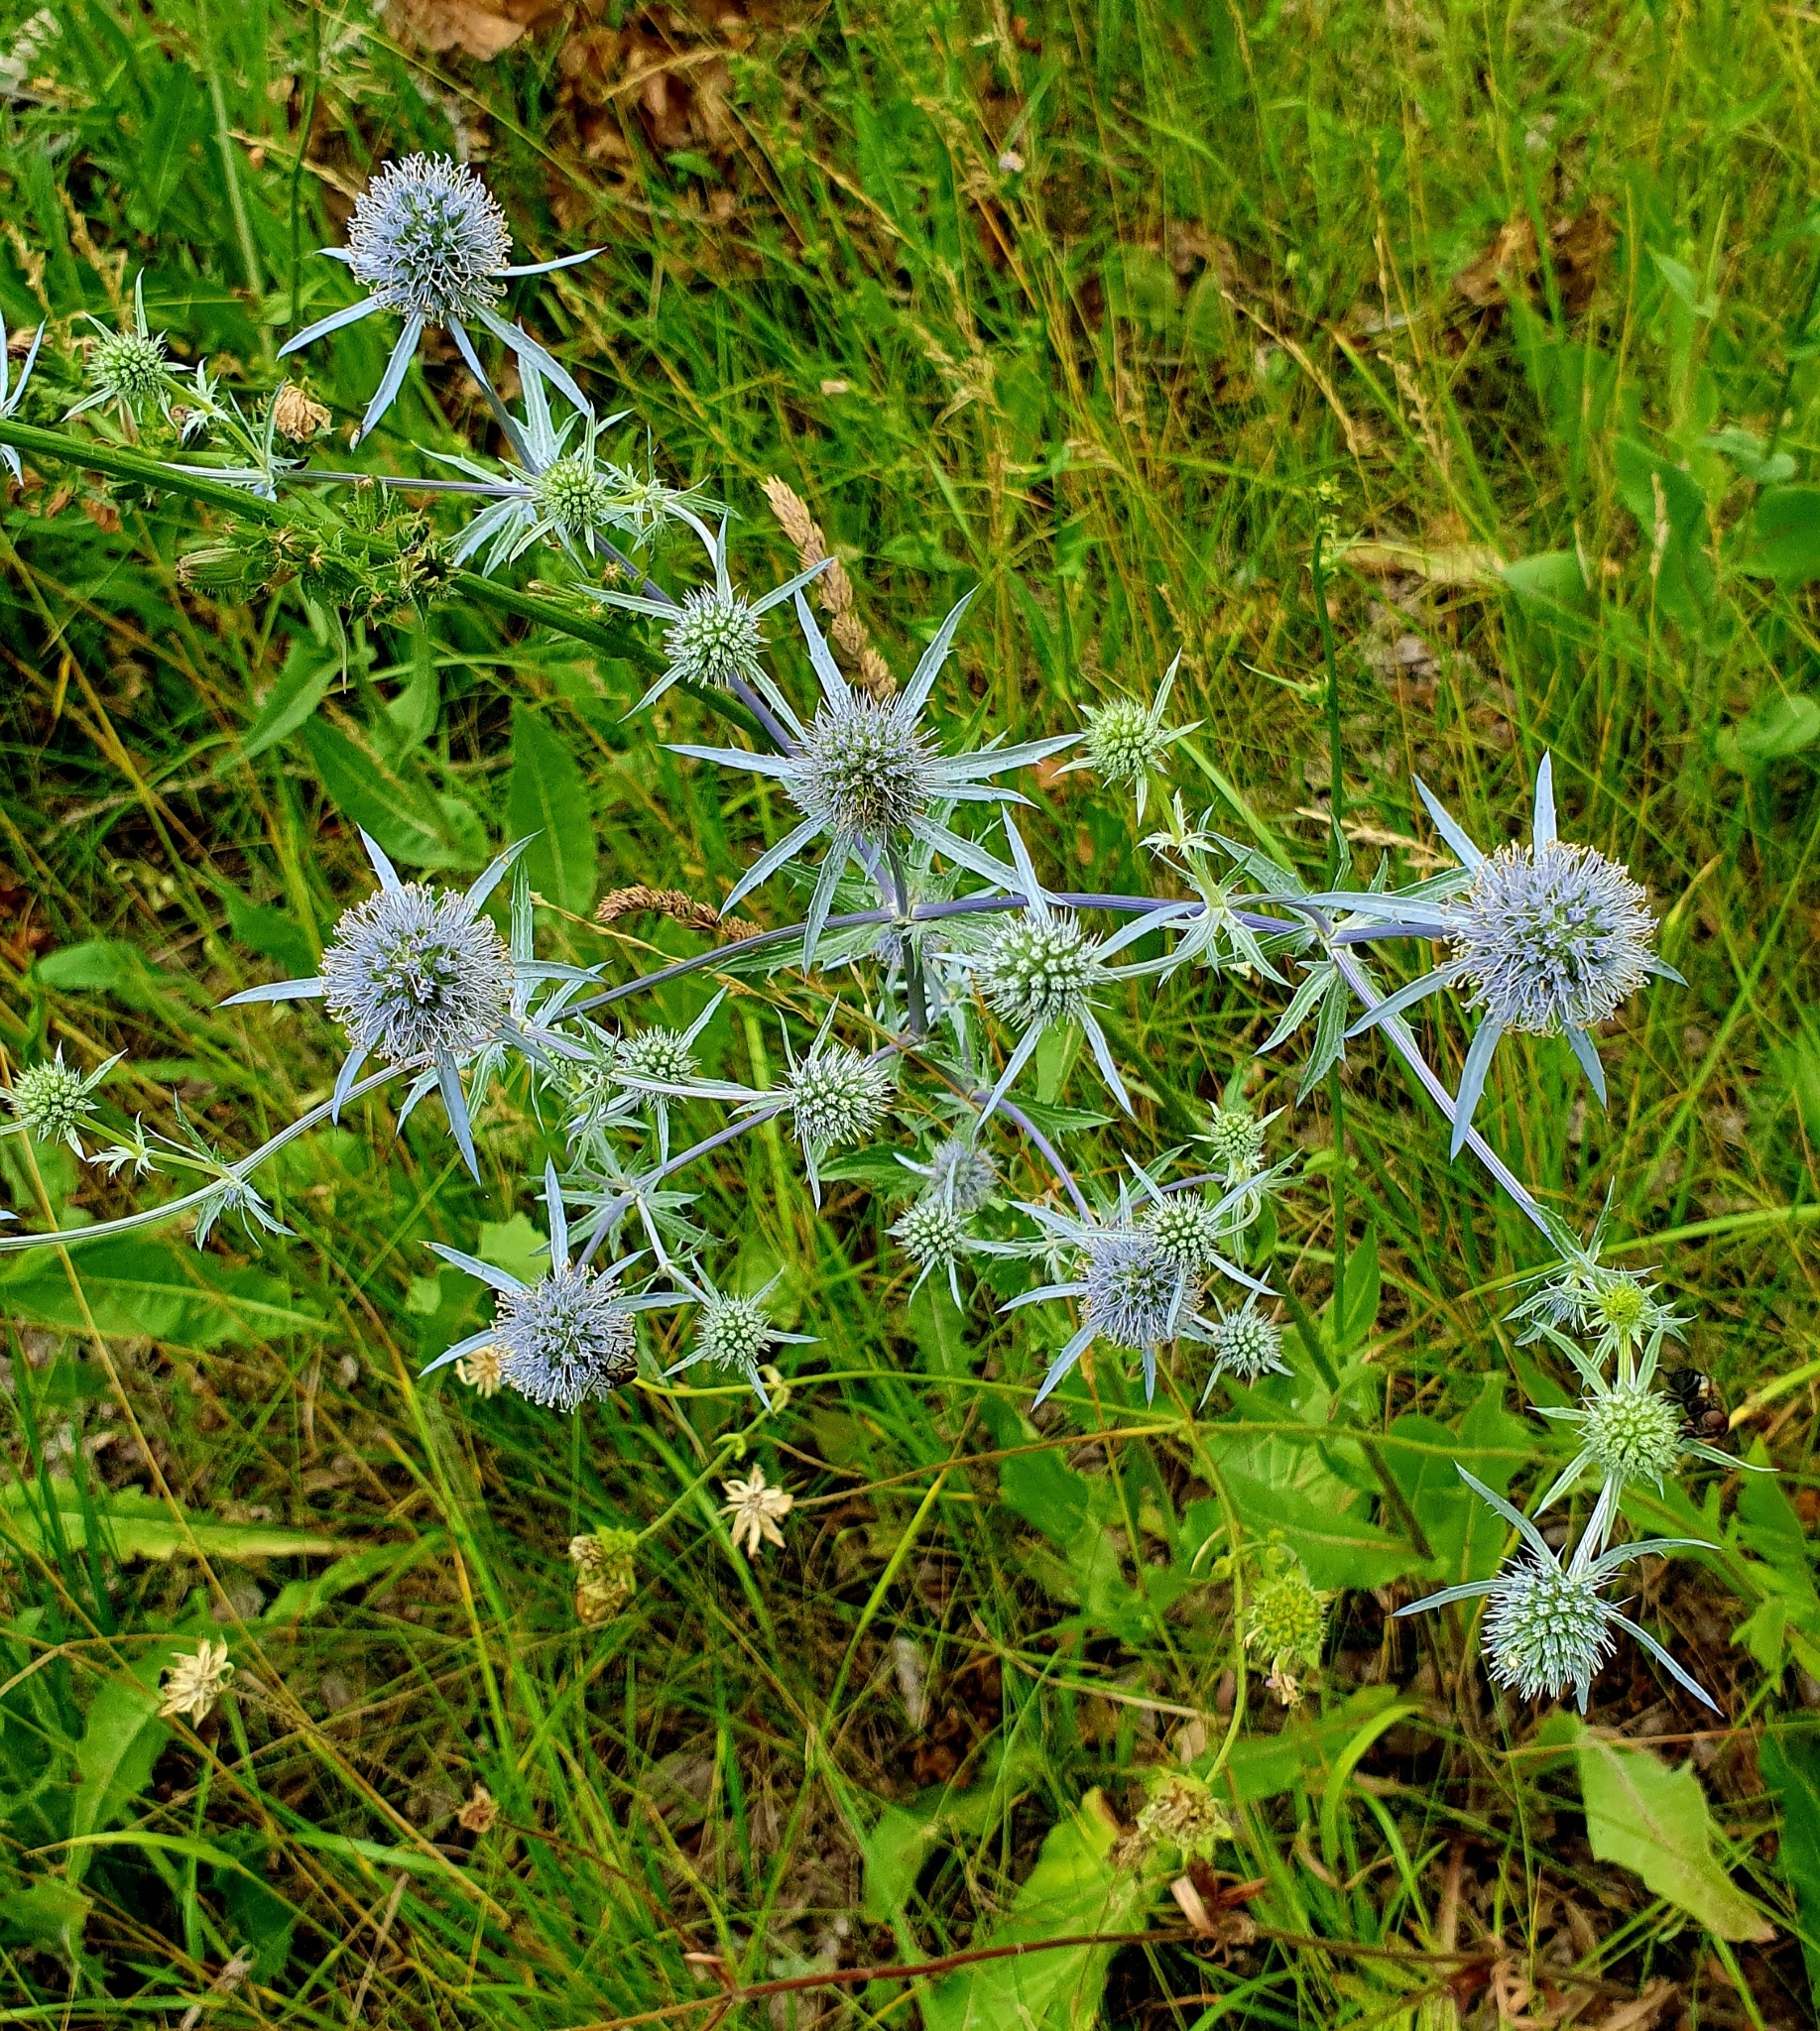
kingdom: Plantae
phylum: Tracheophyta
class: Magnoliopsida
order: Apiales
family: Apiaceae
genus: Eryngium
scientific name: Eryngium planum
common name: Blue eryngo
